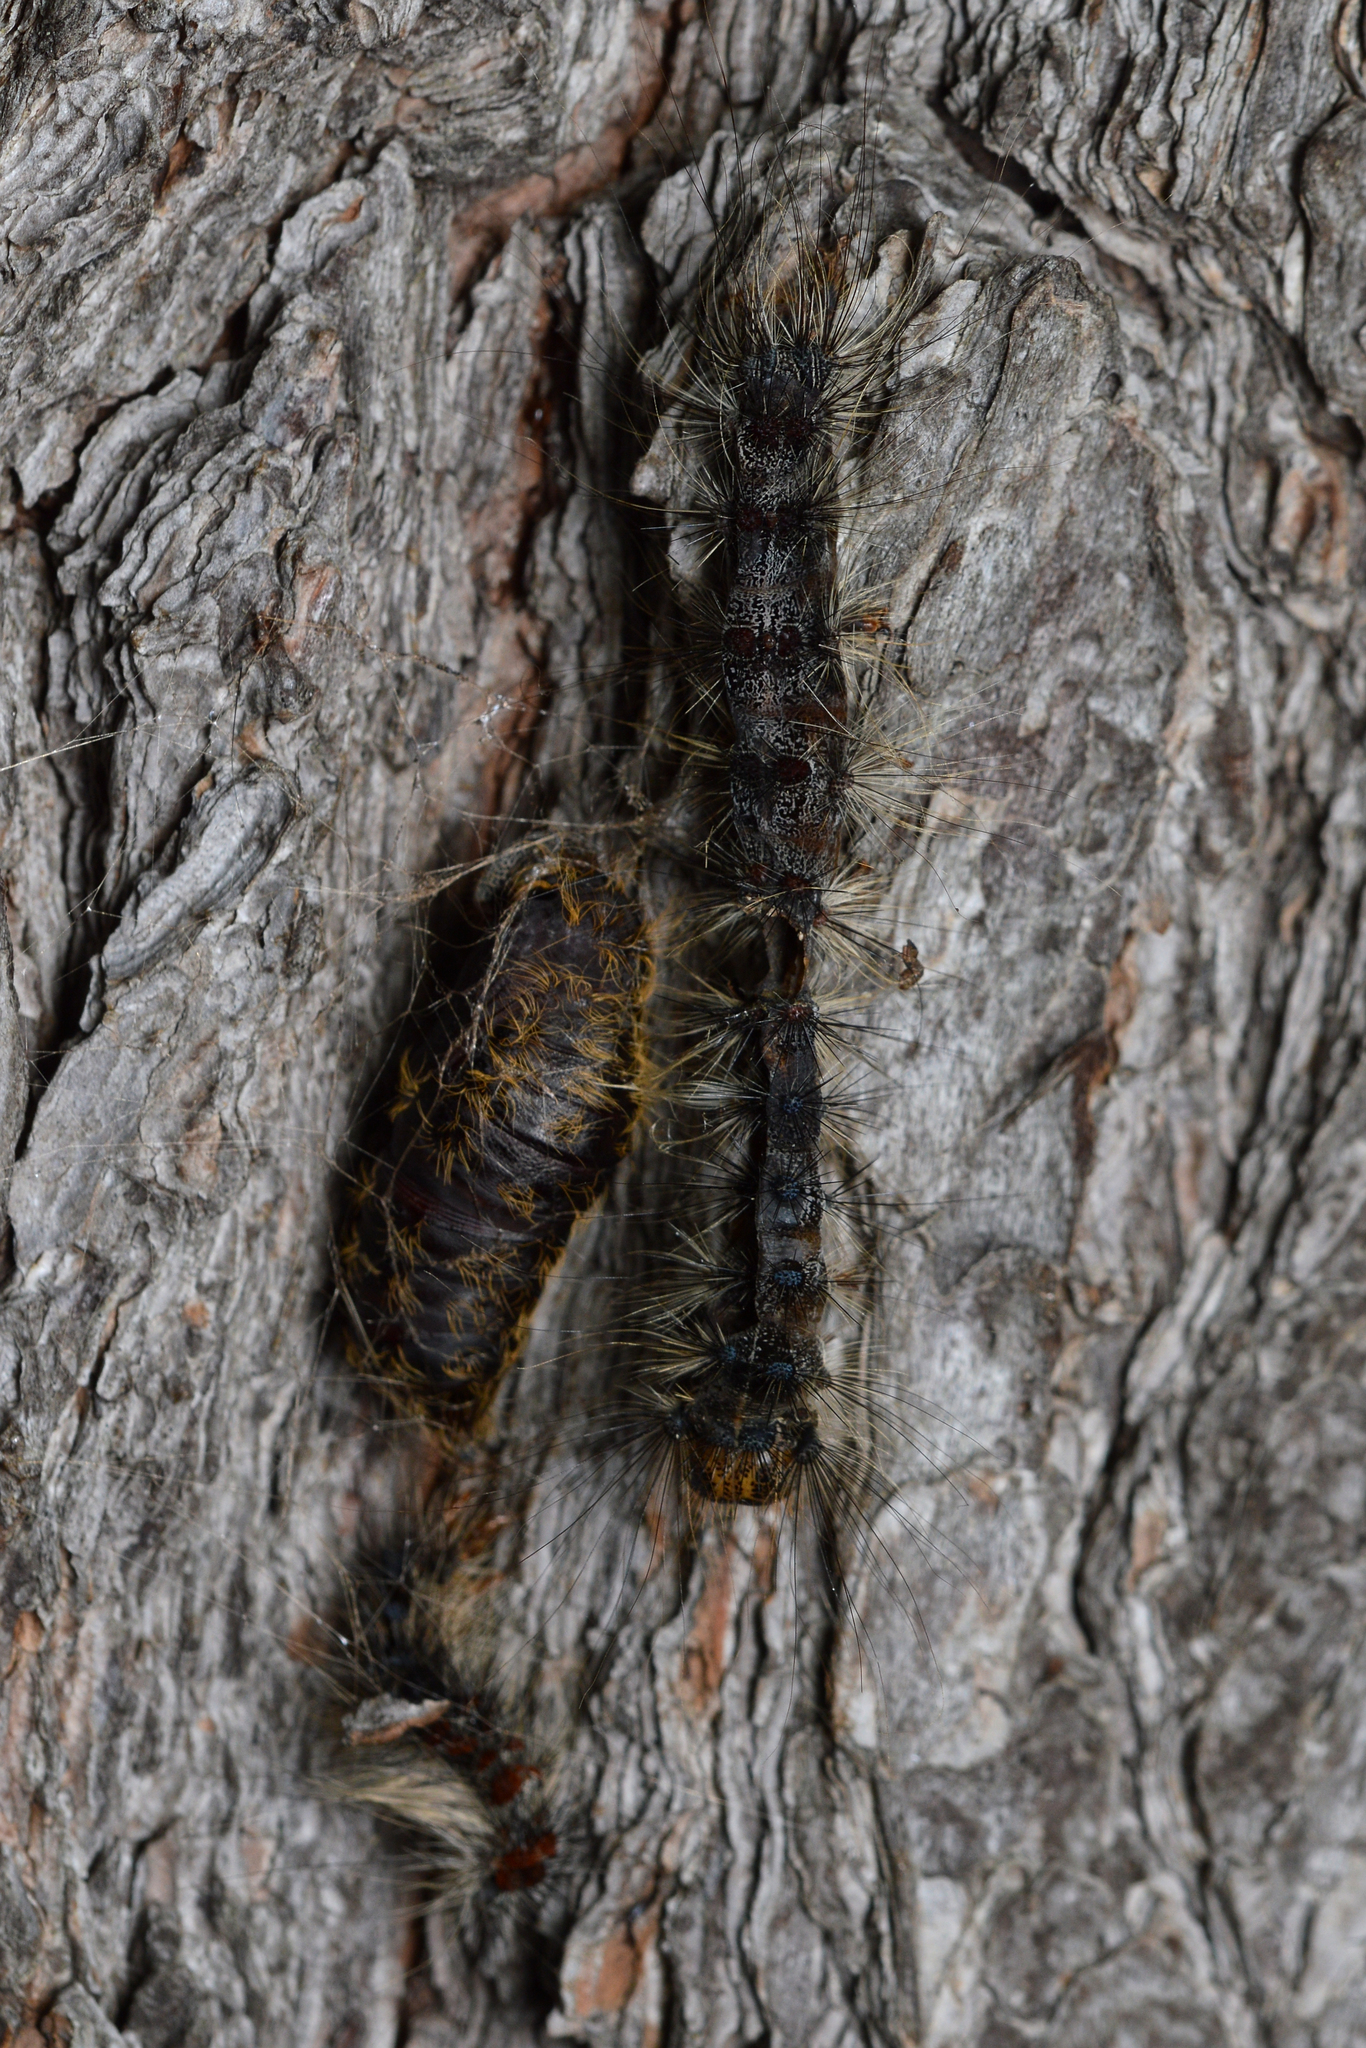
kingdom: Animalia
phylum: Arthropoda
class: Insecta
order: Lepidoptera
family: Erebidae
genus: Lymantria
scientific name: Lymantria dispar
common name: Gypsy moth
